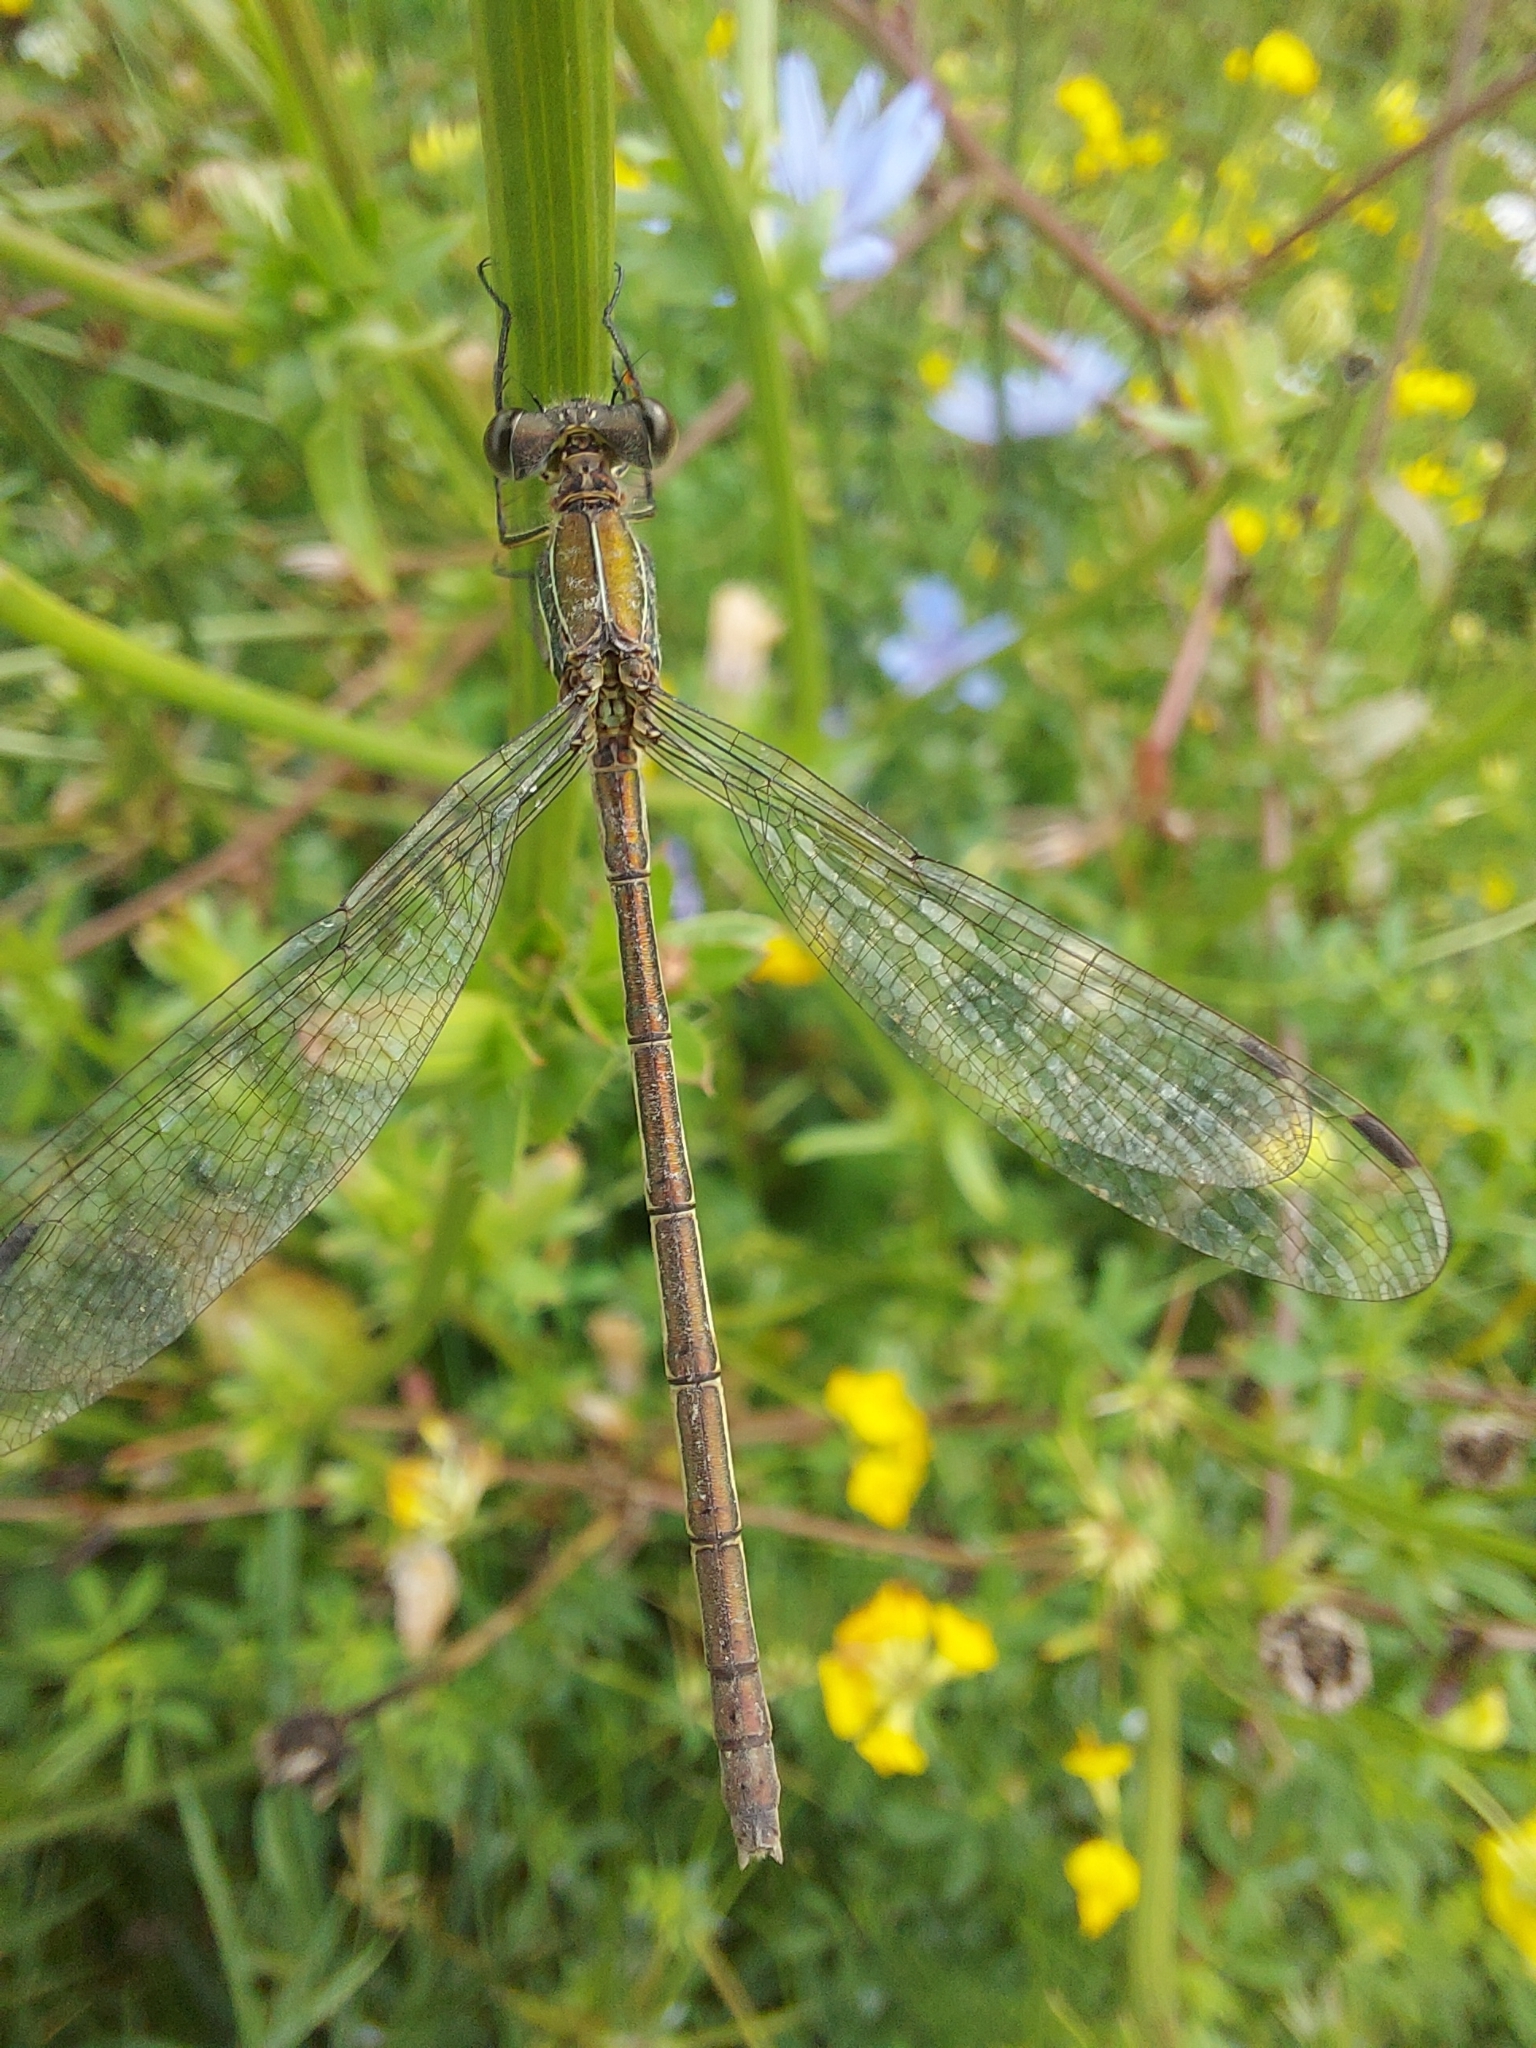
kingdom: Animalia
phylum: Arthropoda
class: Insecta
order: Odonata
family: Lestidae
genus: Lestes
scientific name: Lestes sponsa
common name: Common spreadwing
